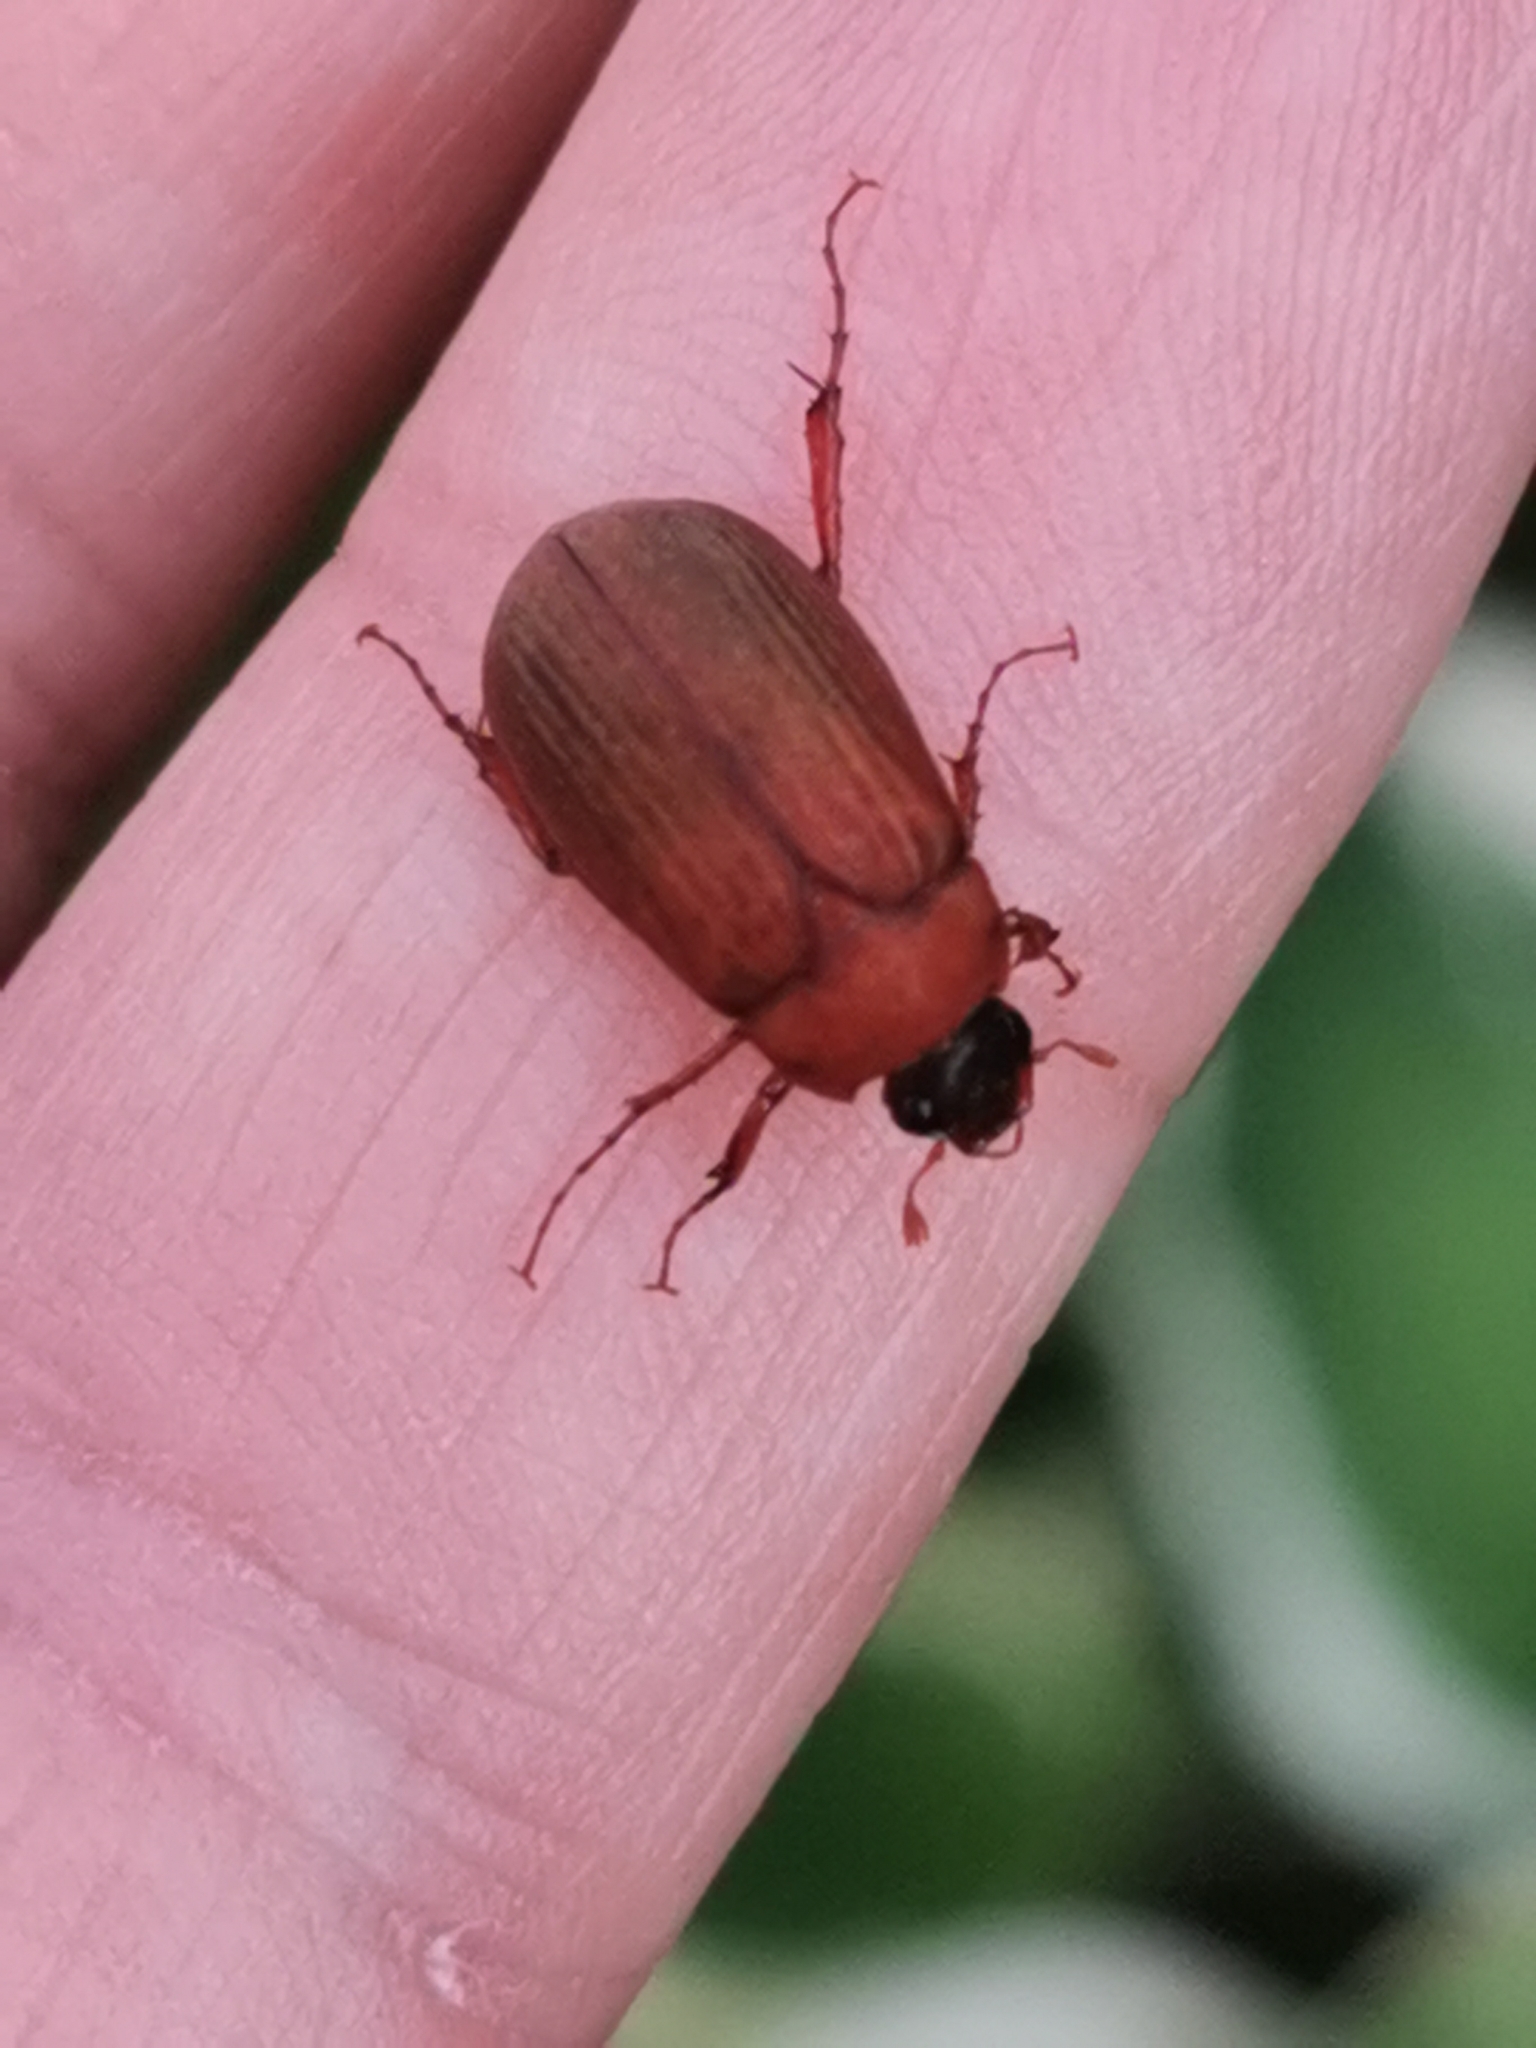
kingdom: Animalia
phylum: Arthropoda
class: Insecta
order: Coleoptera
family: Scarabaeidae
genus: Serica
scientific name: Serica brunnea
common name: Brown chafer
